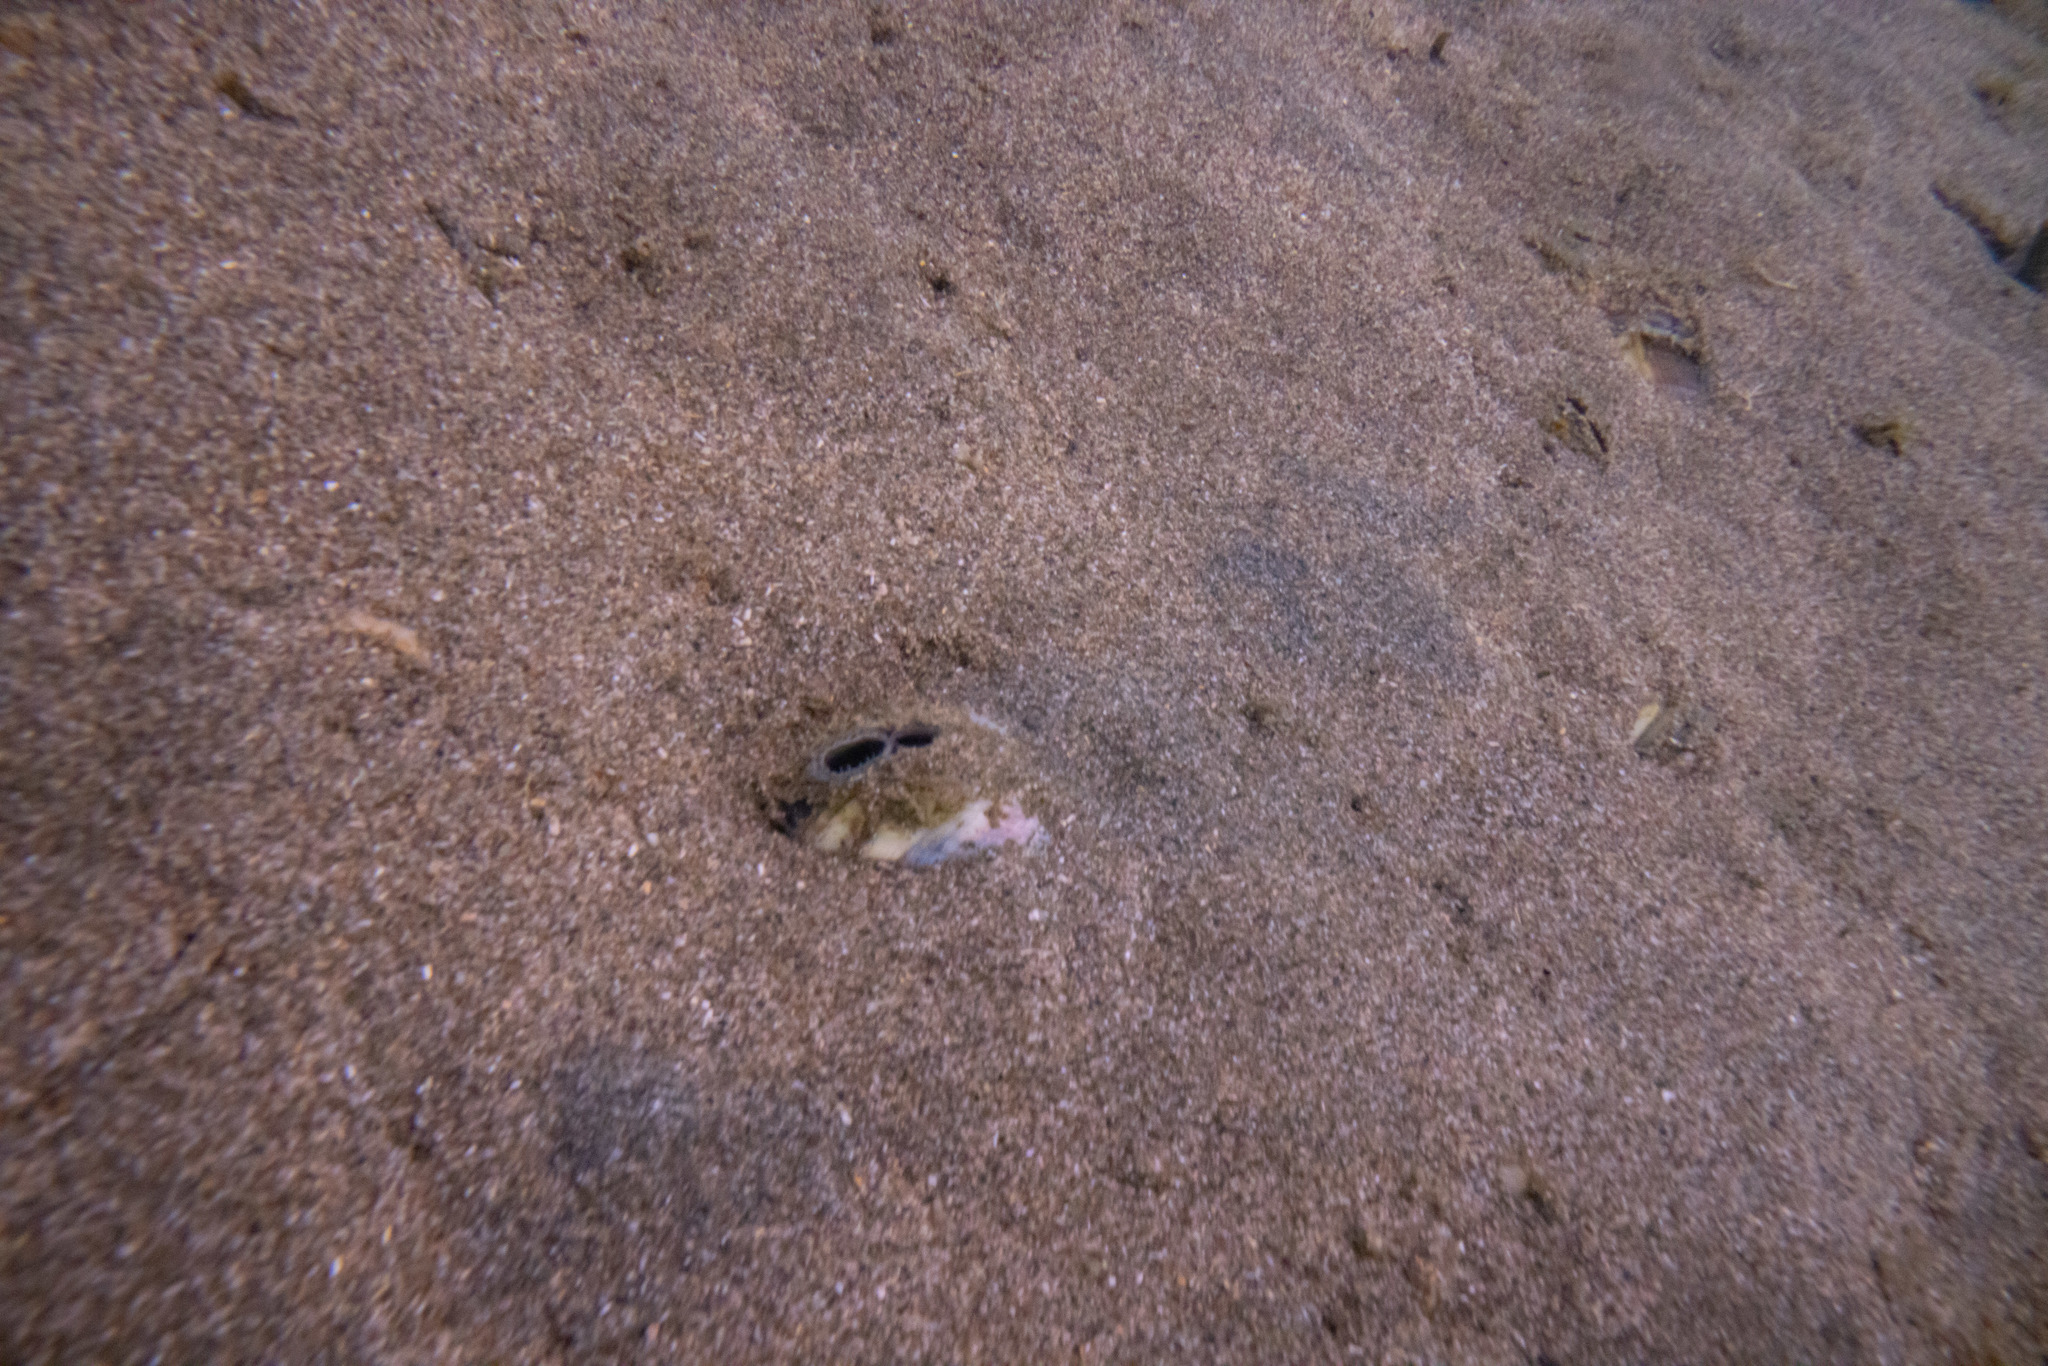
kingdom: Animalia
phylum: Mollusca
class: Bivalvia
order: Venerida
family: Veneridae
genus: Austrovenus
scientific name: Austrovenus stutchburyi
